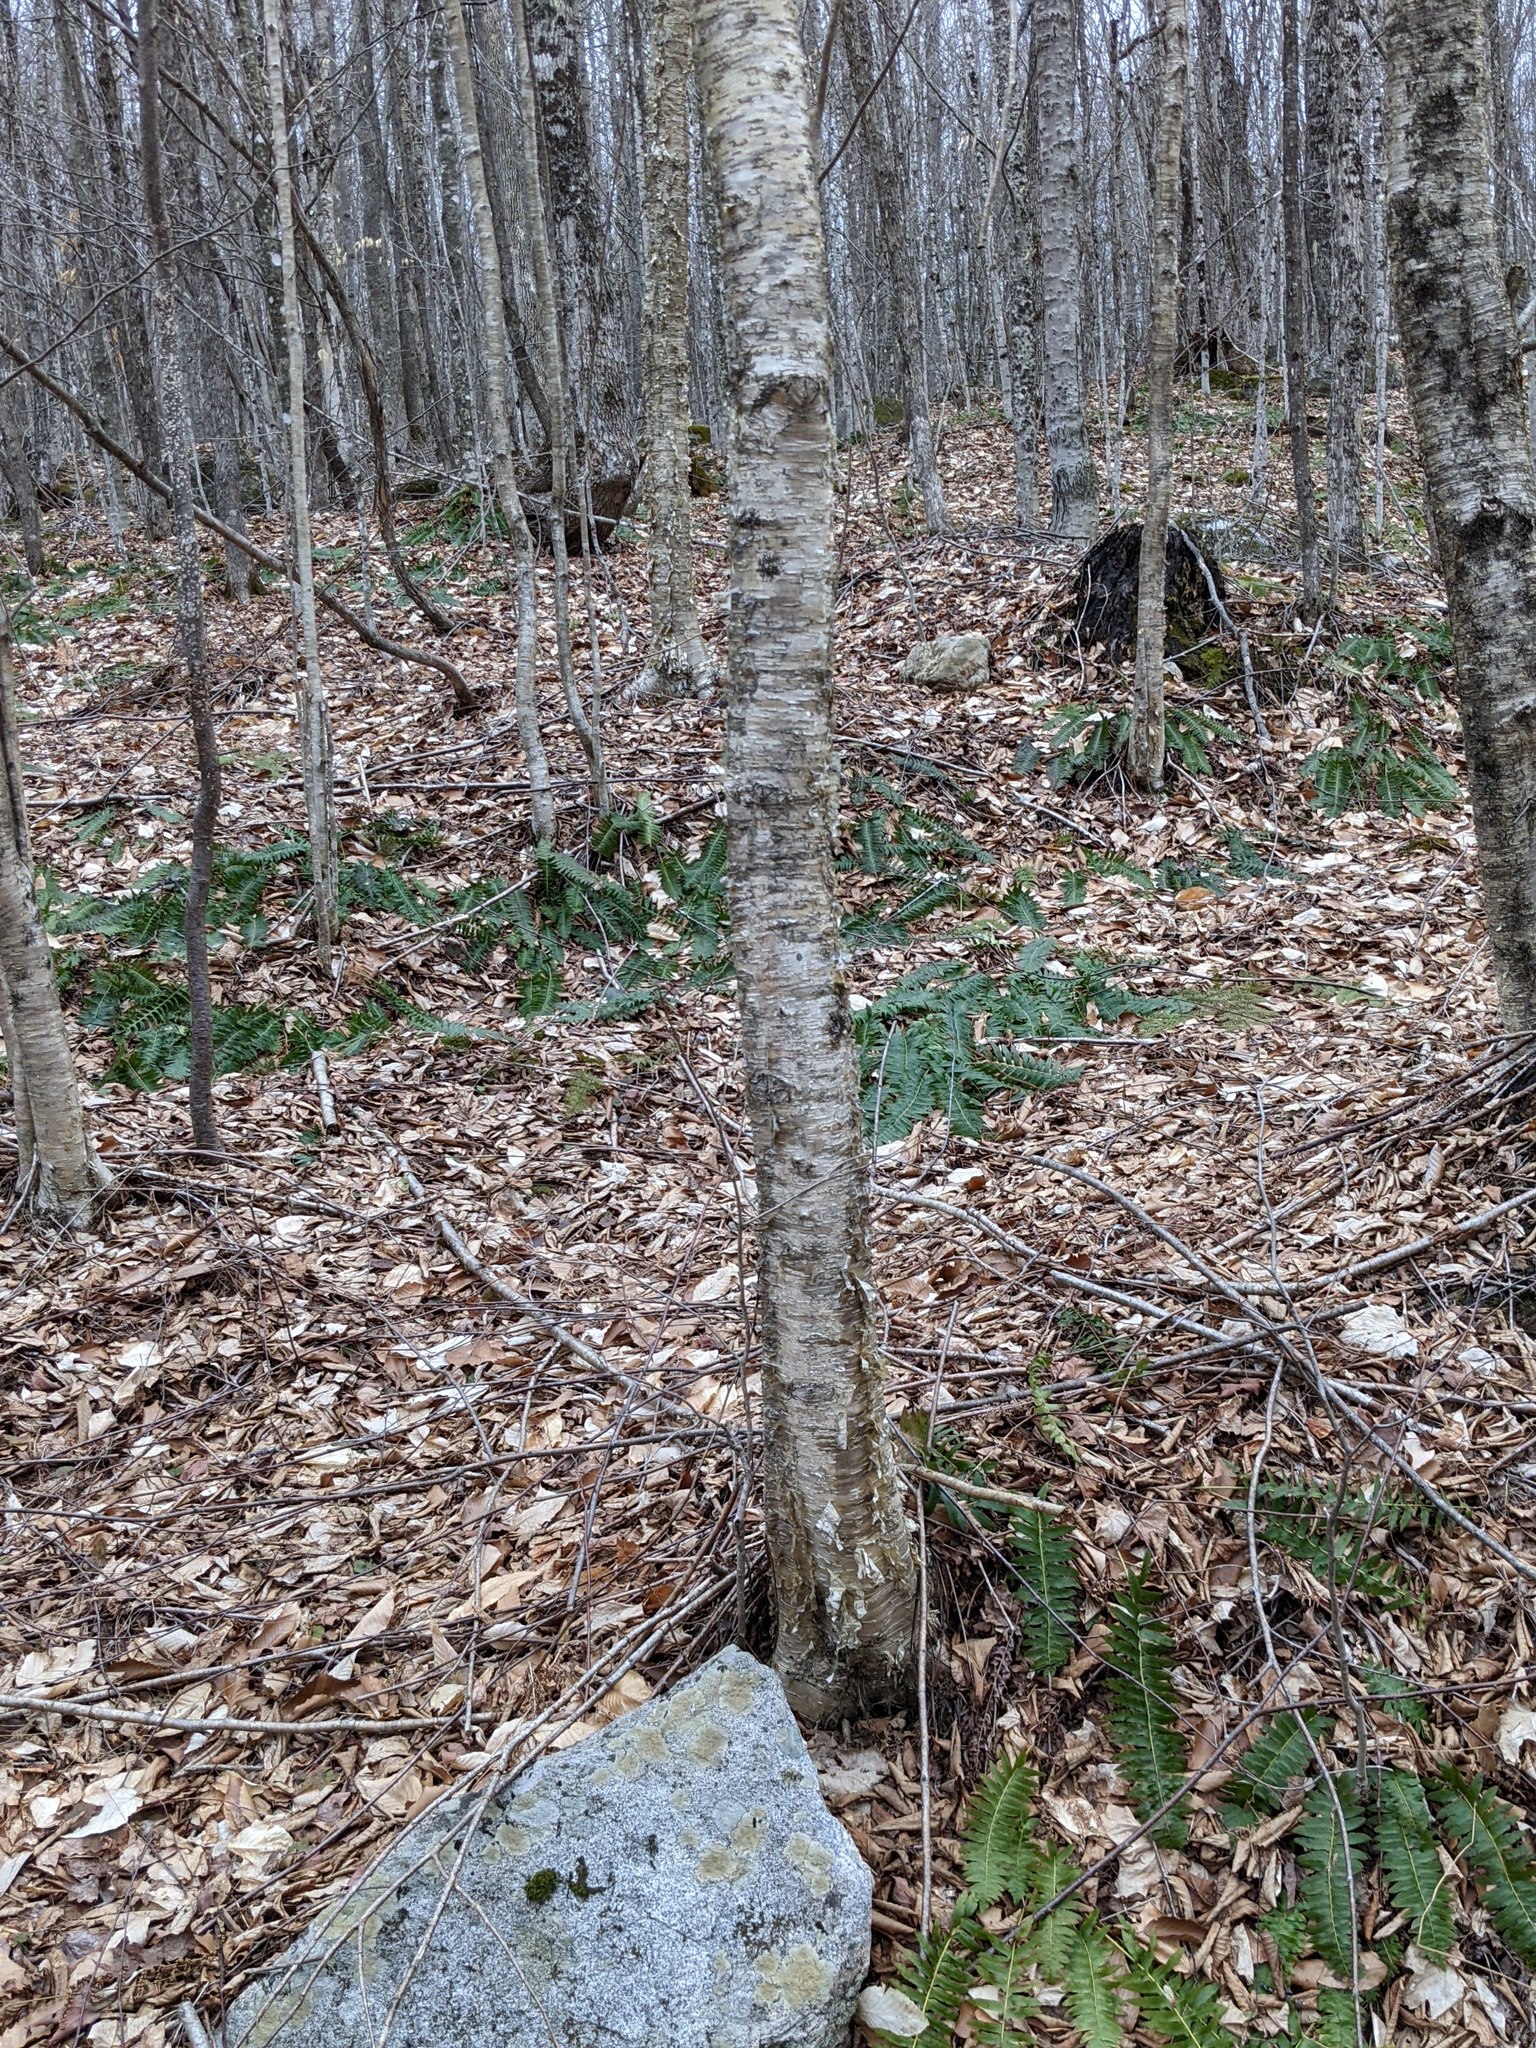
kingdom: Plantae
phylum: Tracheophyta
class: Magnoliopsida
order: Fagales
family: Betulaceae
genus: Betula
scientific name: Betula alleghaniensis
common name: Yellow birch
